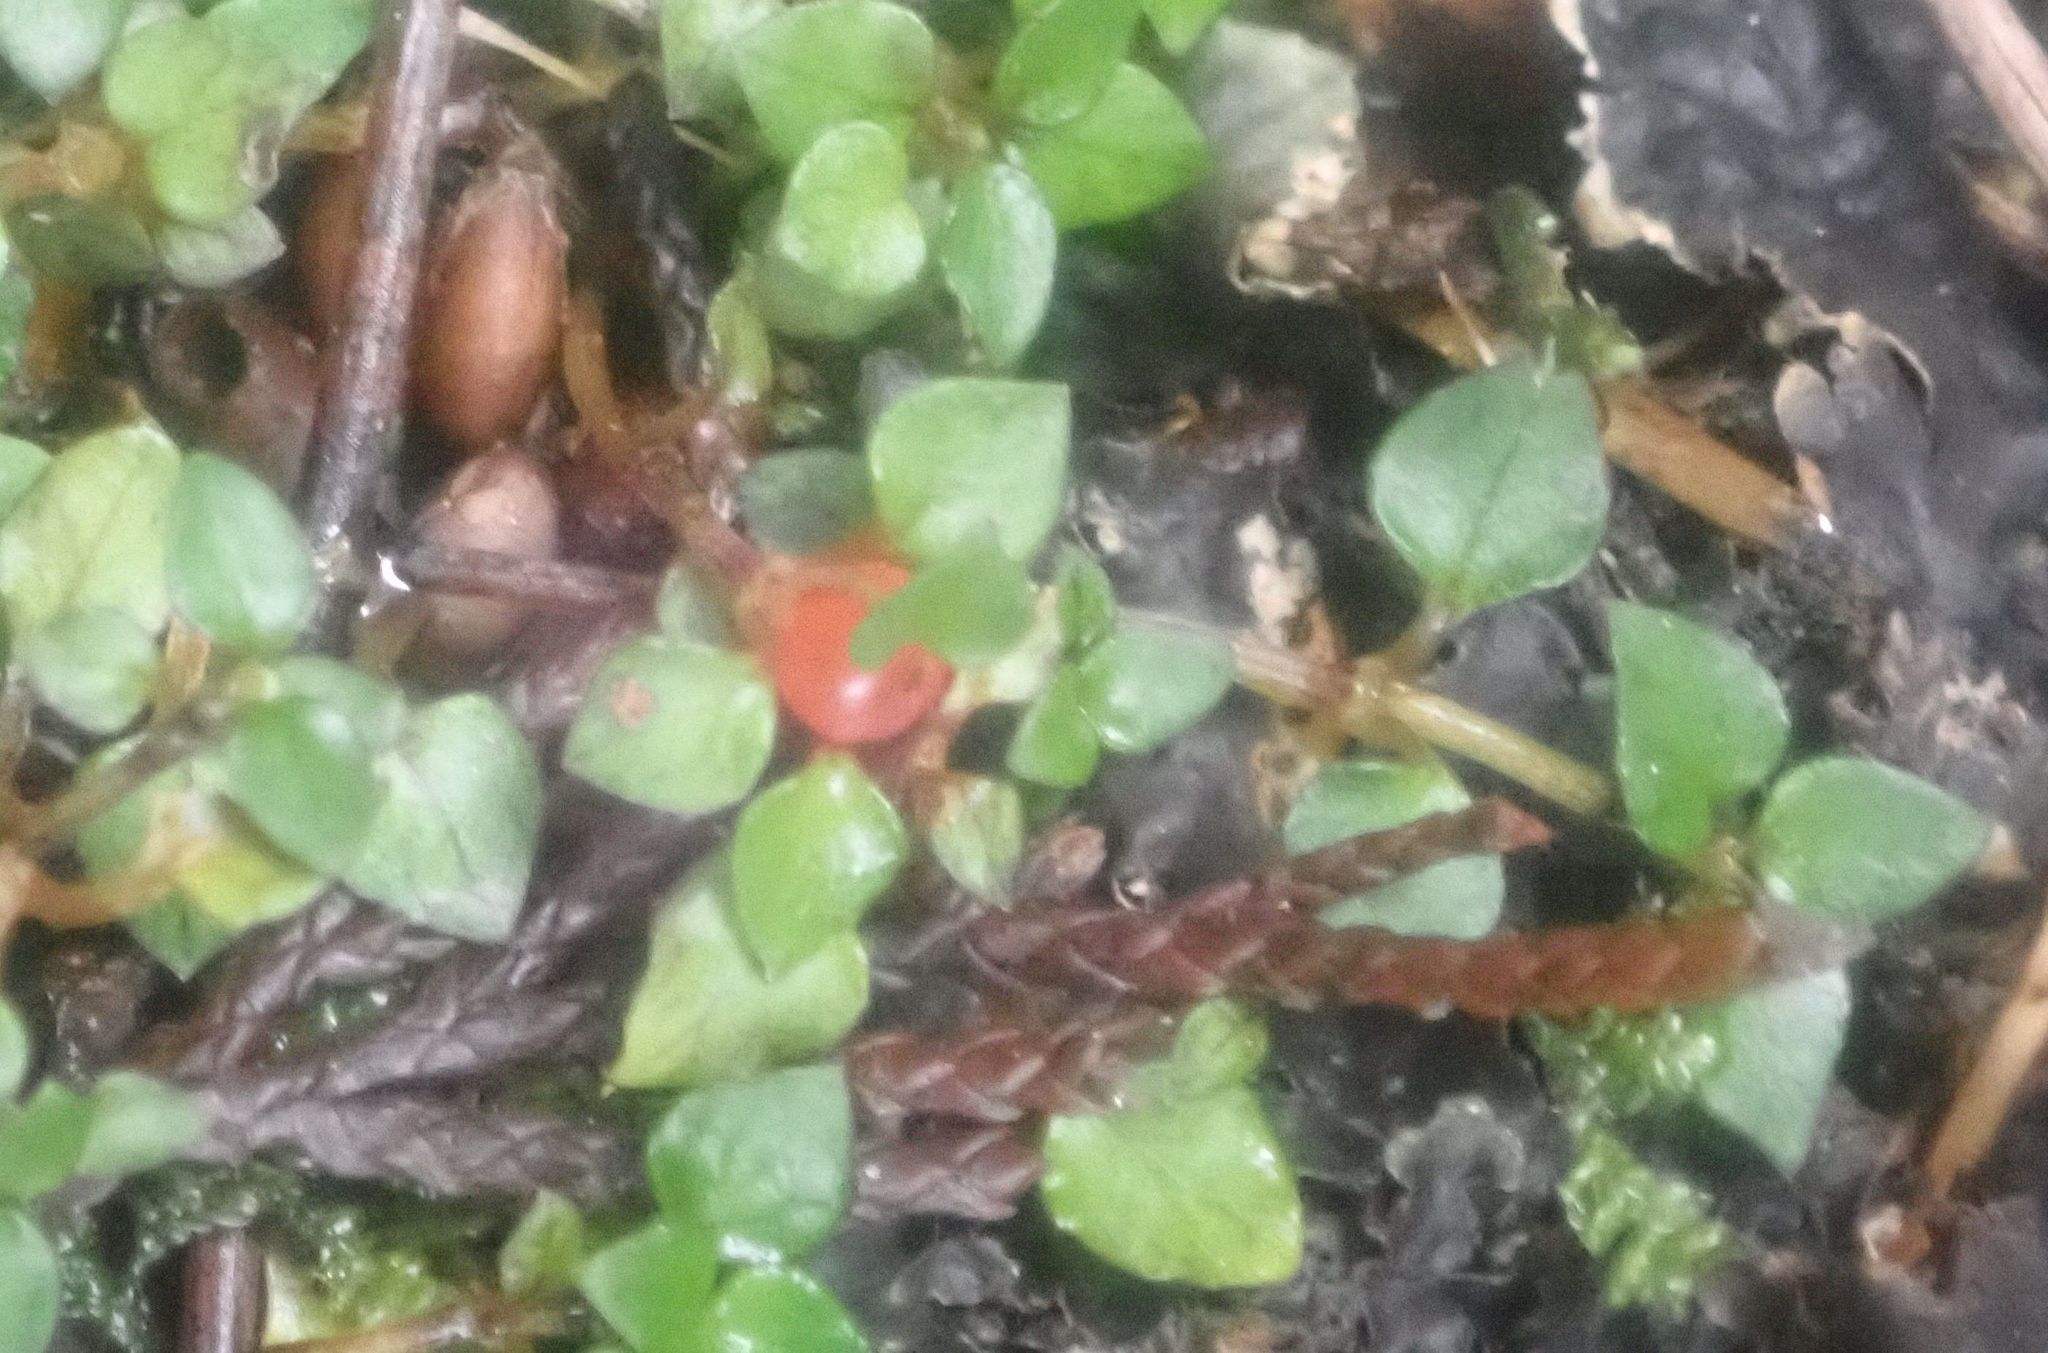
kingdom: Plantae
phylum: Tracheophyta
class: Magnoliopsida
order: Gentianales
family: Rubiaceae
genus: Nertera
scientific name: Nertera granadensis
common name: Beadplant
